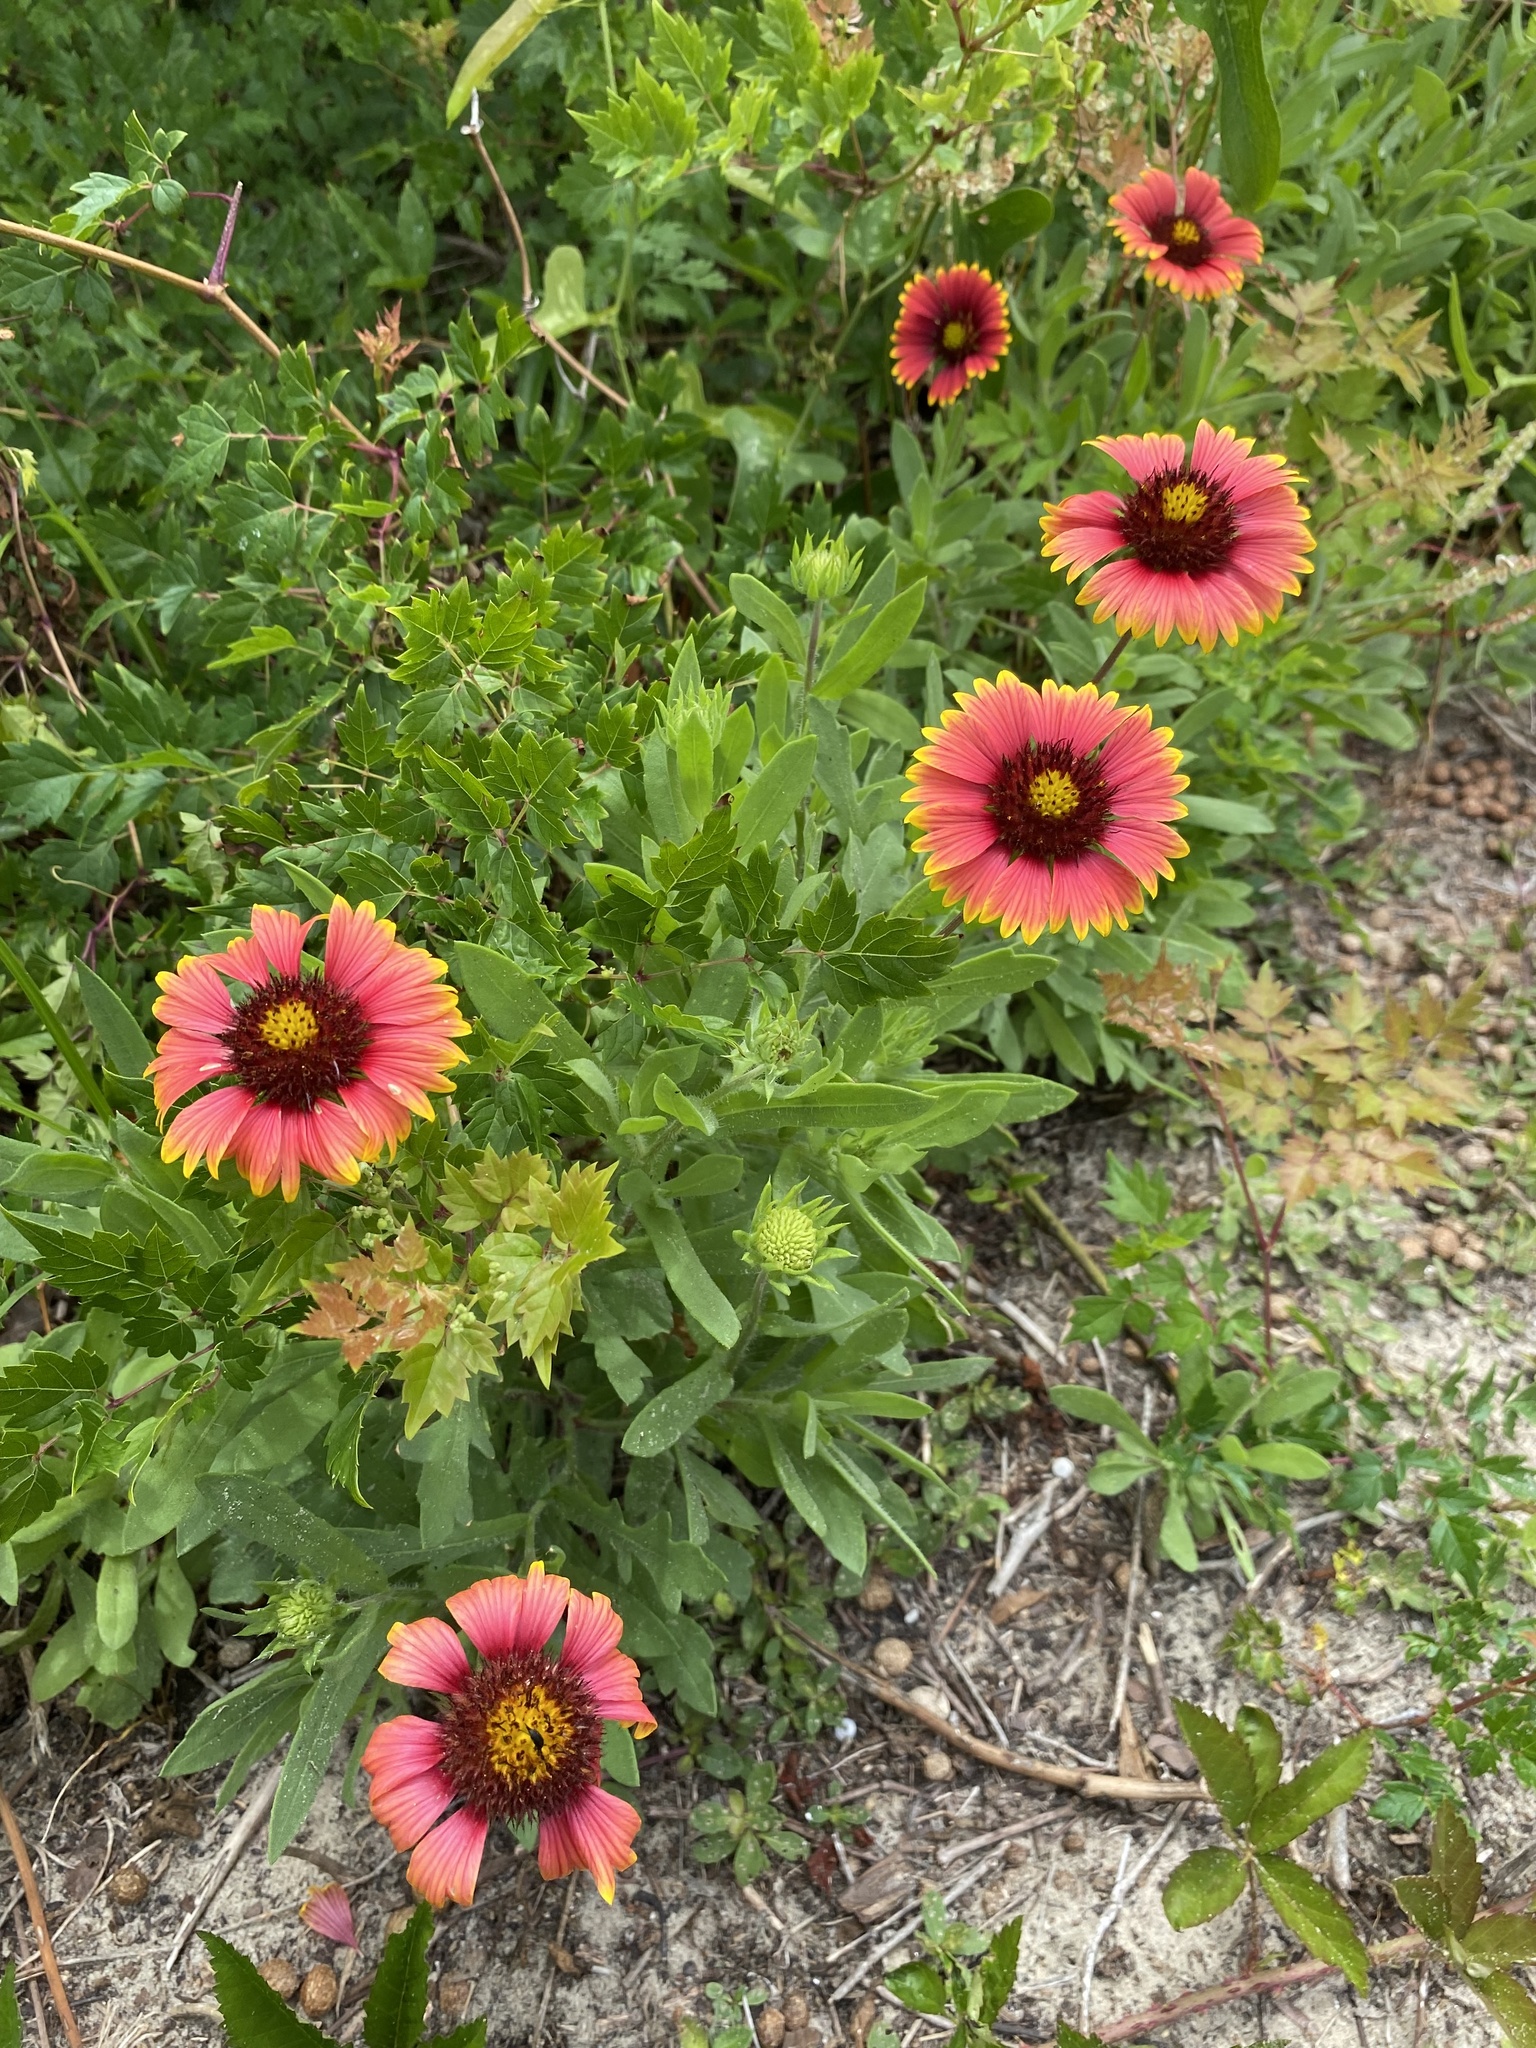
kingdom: Plantae
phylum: Tracheophyta
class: Magnoliopsida
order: Asterales
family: Asteraceae
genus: Gaillardia
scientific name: Gaillardia pulchella
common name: Firewheel
